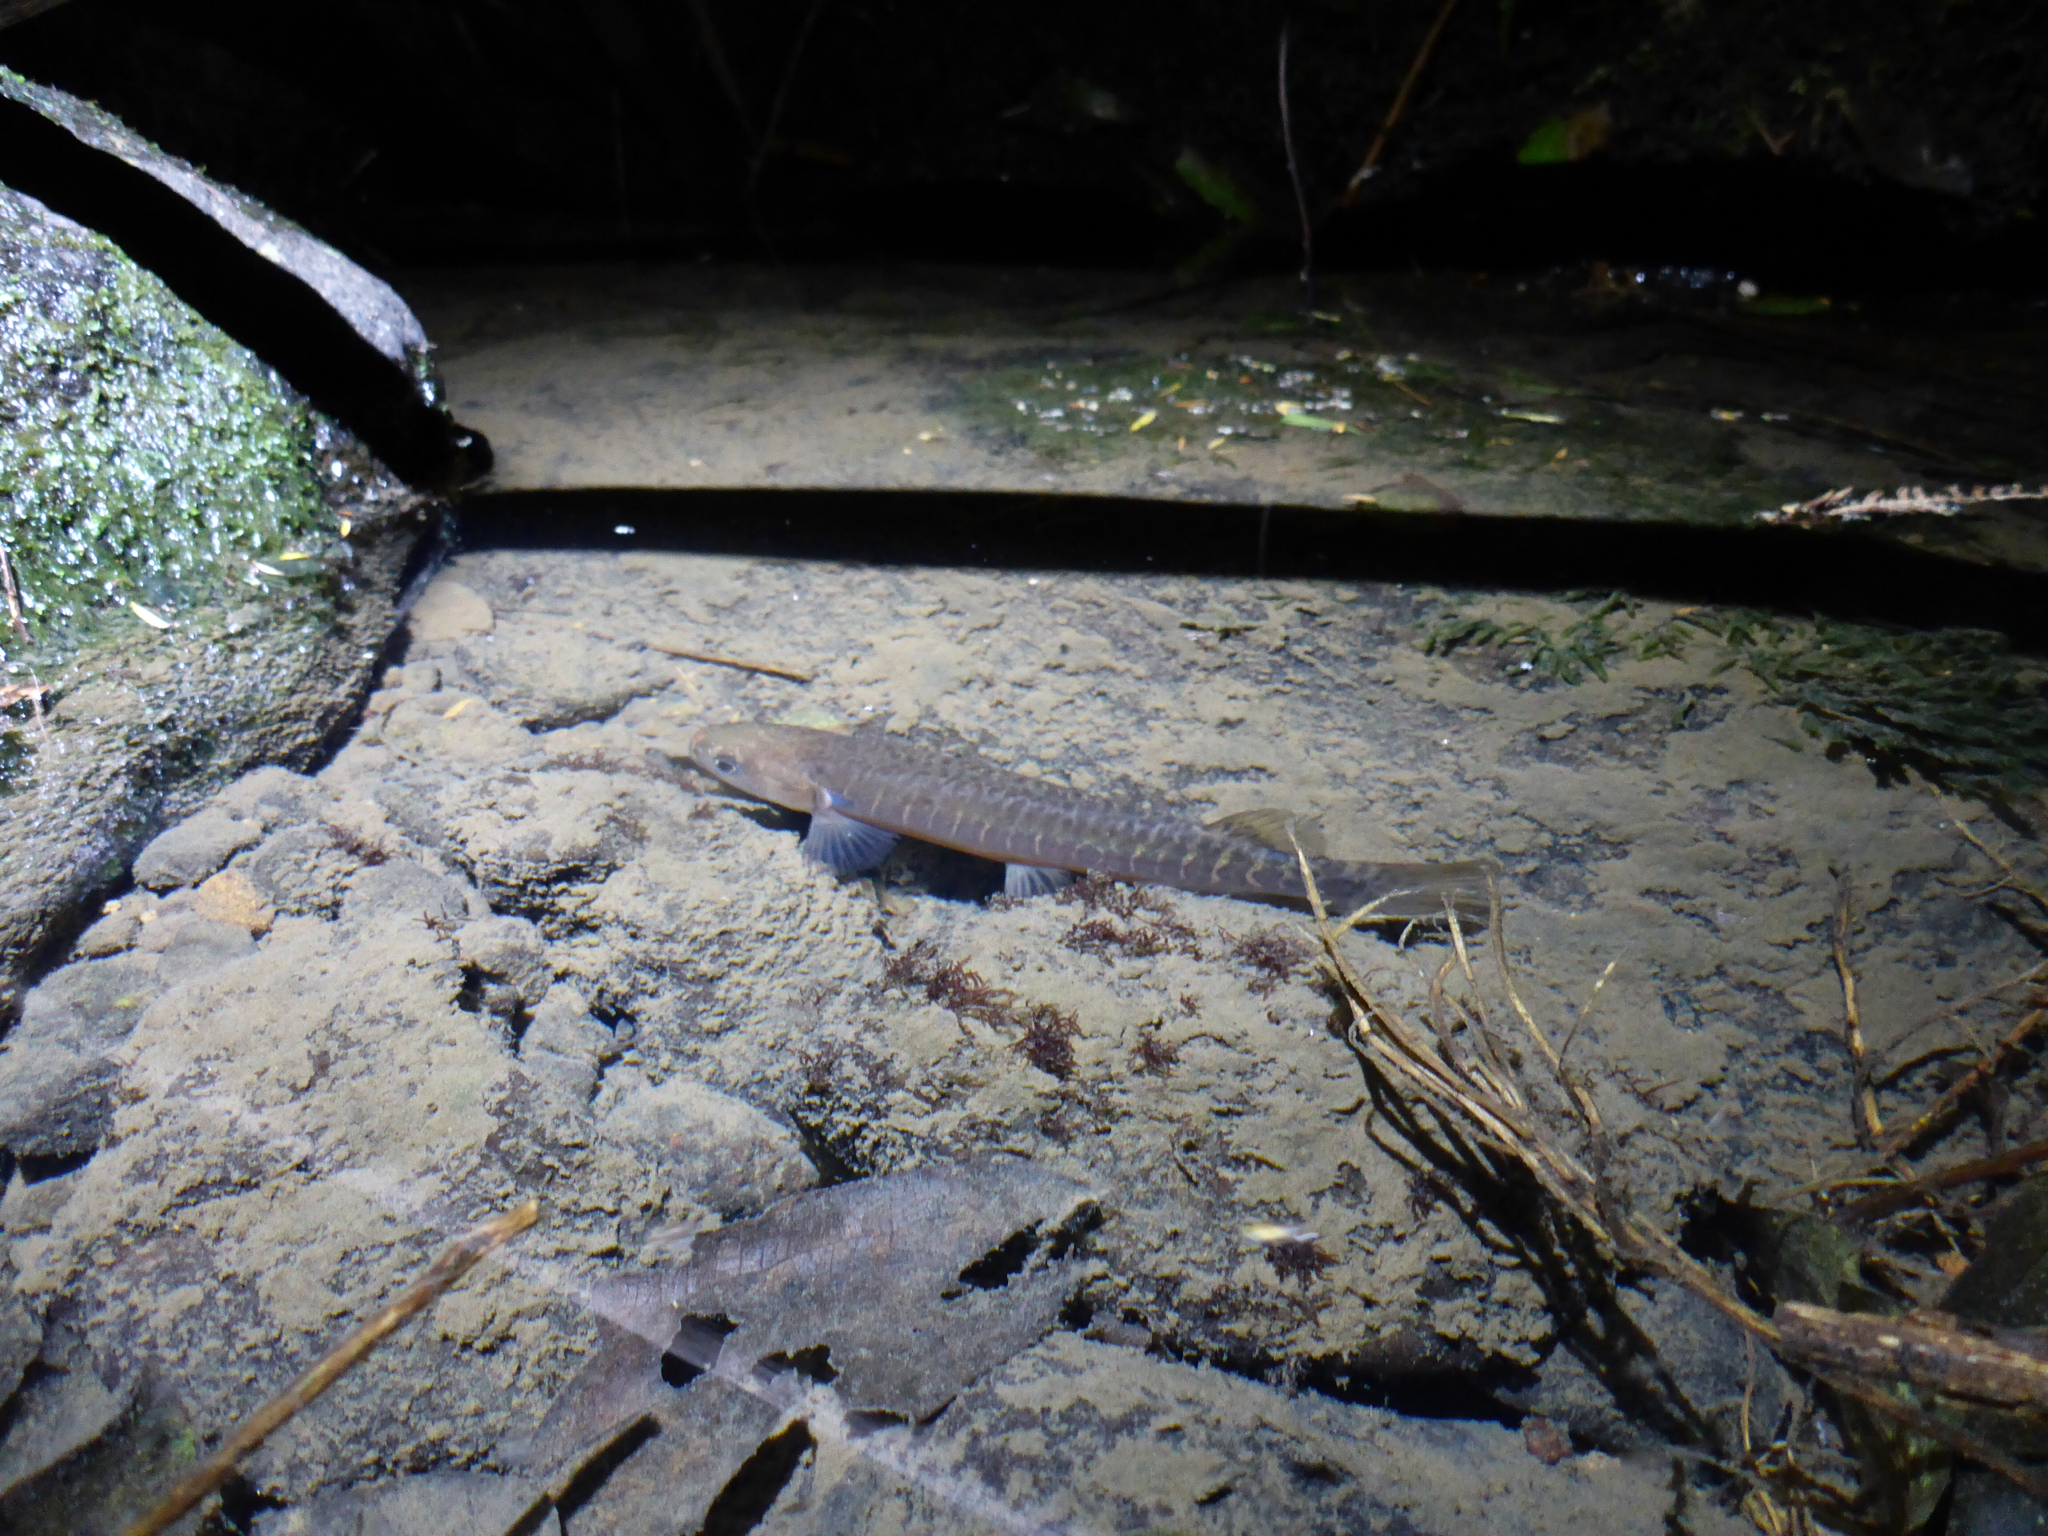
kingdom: Animalia
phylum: Chordata
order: Osmeriformes
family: Galaxiidae
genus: Galaxias
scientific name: Galaxias fasciatus
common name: Banded kokopu
